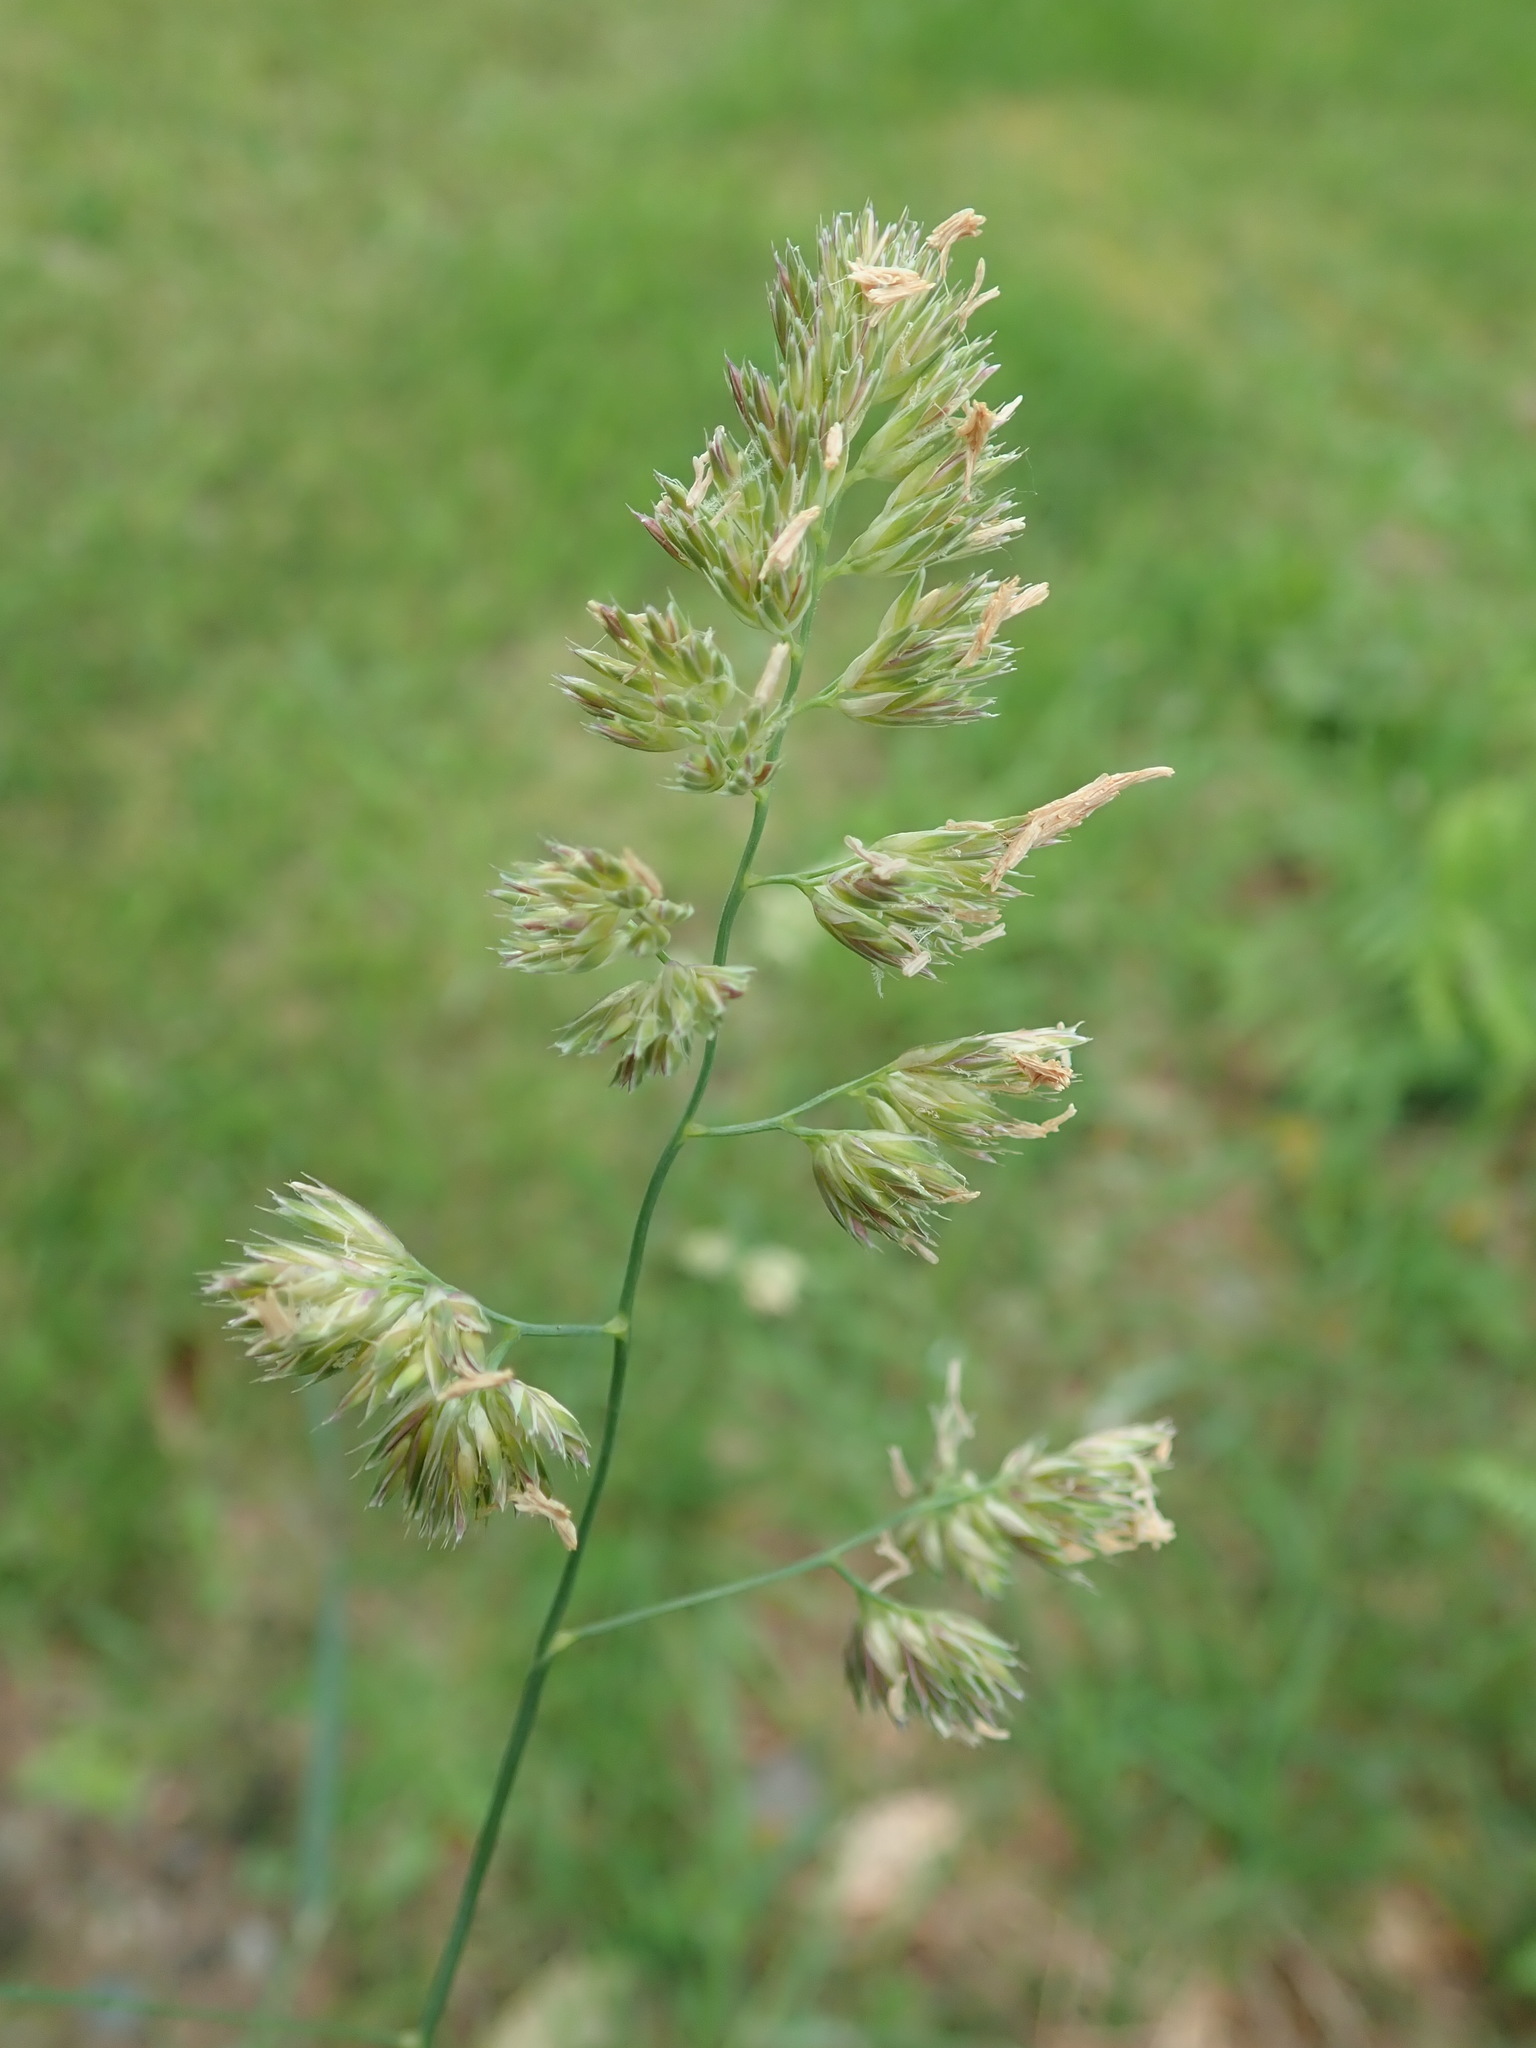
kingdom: Plantae
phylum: Tracheophyta
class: Liliopsida
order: Poales
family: Poaceae
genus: Dactylis
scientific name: Dactylis glomerata
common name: Orchardgrass
